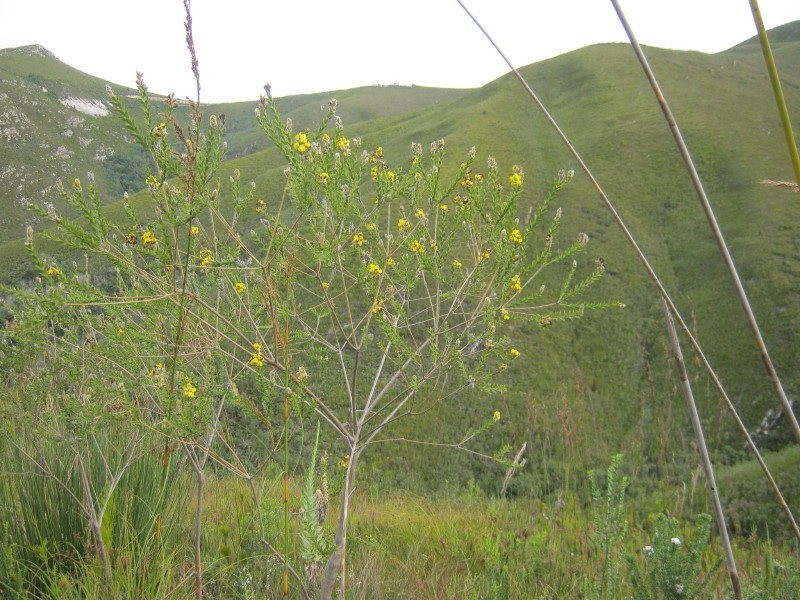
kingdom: Plantae
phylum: Tracheophyta
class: Magnoliopsida
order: Fabales
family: Fabaceae
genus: Liparia
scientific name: Liparia hirsuta
